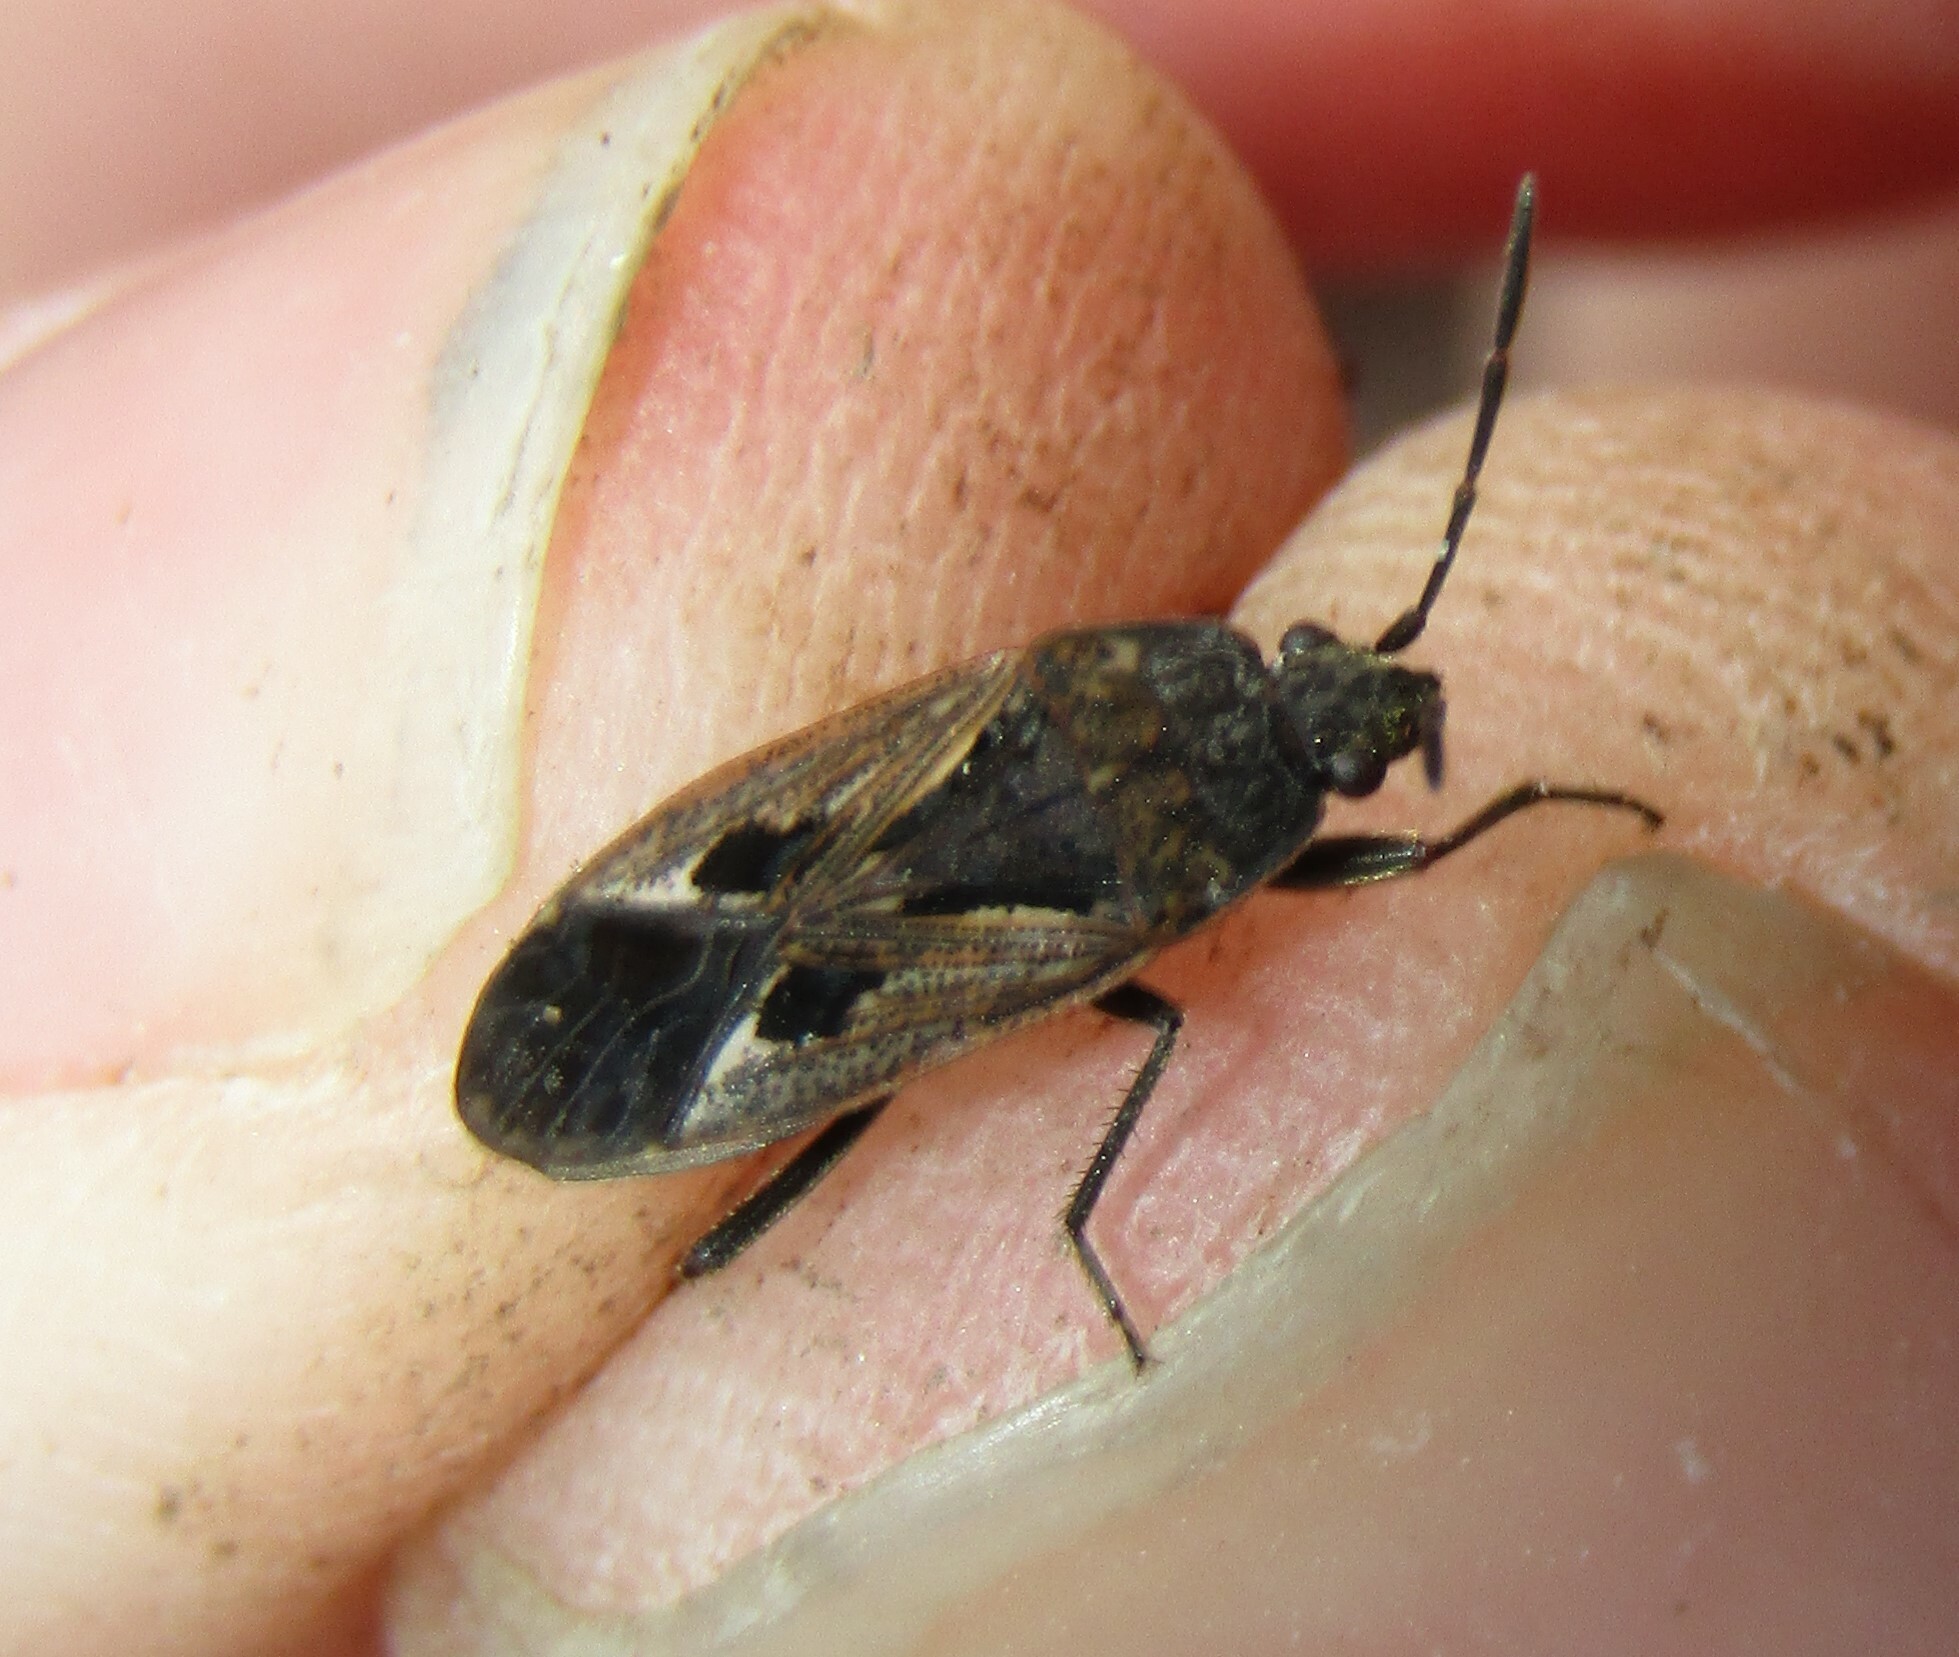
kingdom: Animalia
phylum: Arthropoda
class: Insecta
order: Hemiptera
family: Rhyparochromidae
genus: Rhyparochromus
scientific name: Rhyparochromus pini
